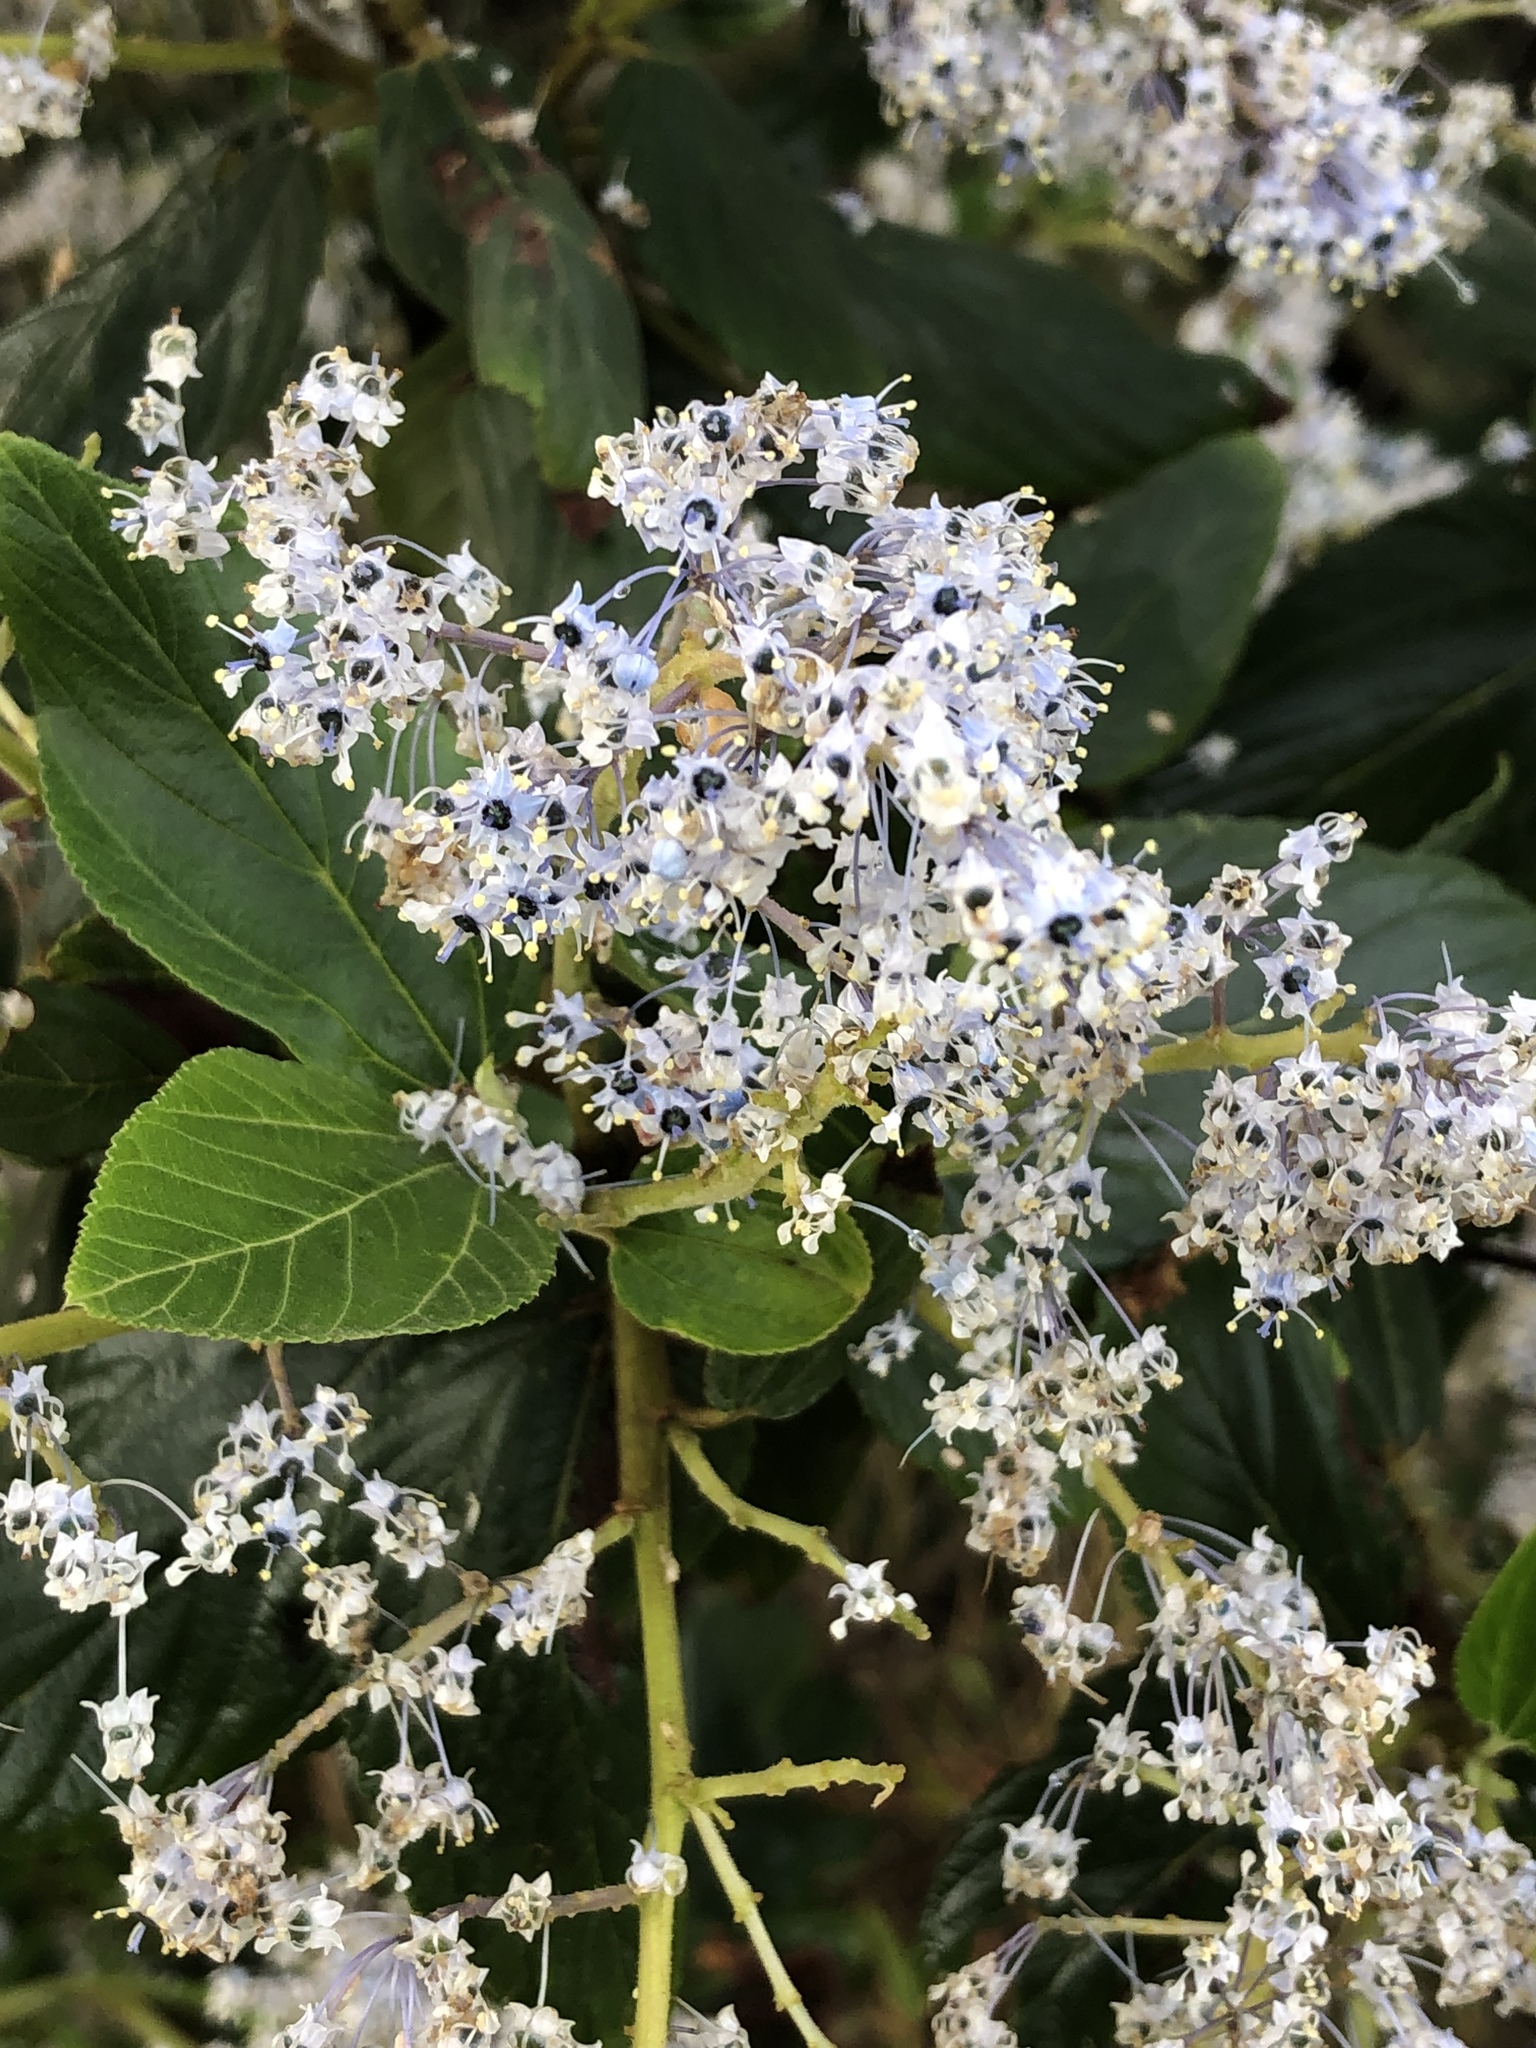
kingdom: Plantae
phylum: Tracheophyta
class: Magnoliopsida
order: Rosales
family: Rhamnaceae
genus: Ceanothus
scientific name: Ceanothus arboreus
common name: Catalina mountain-lilac
